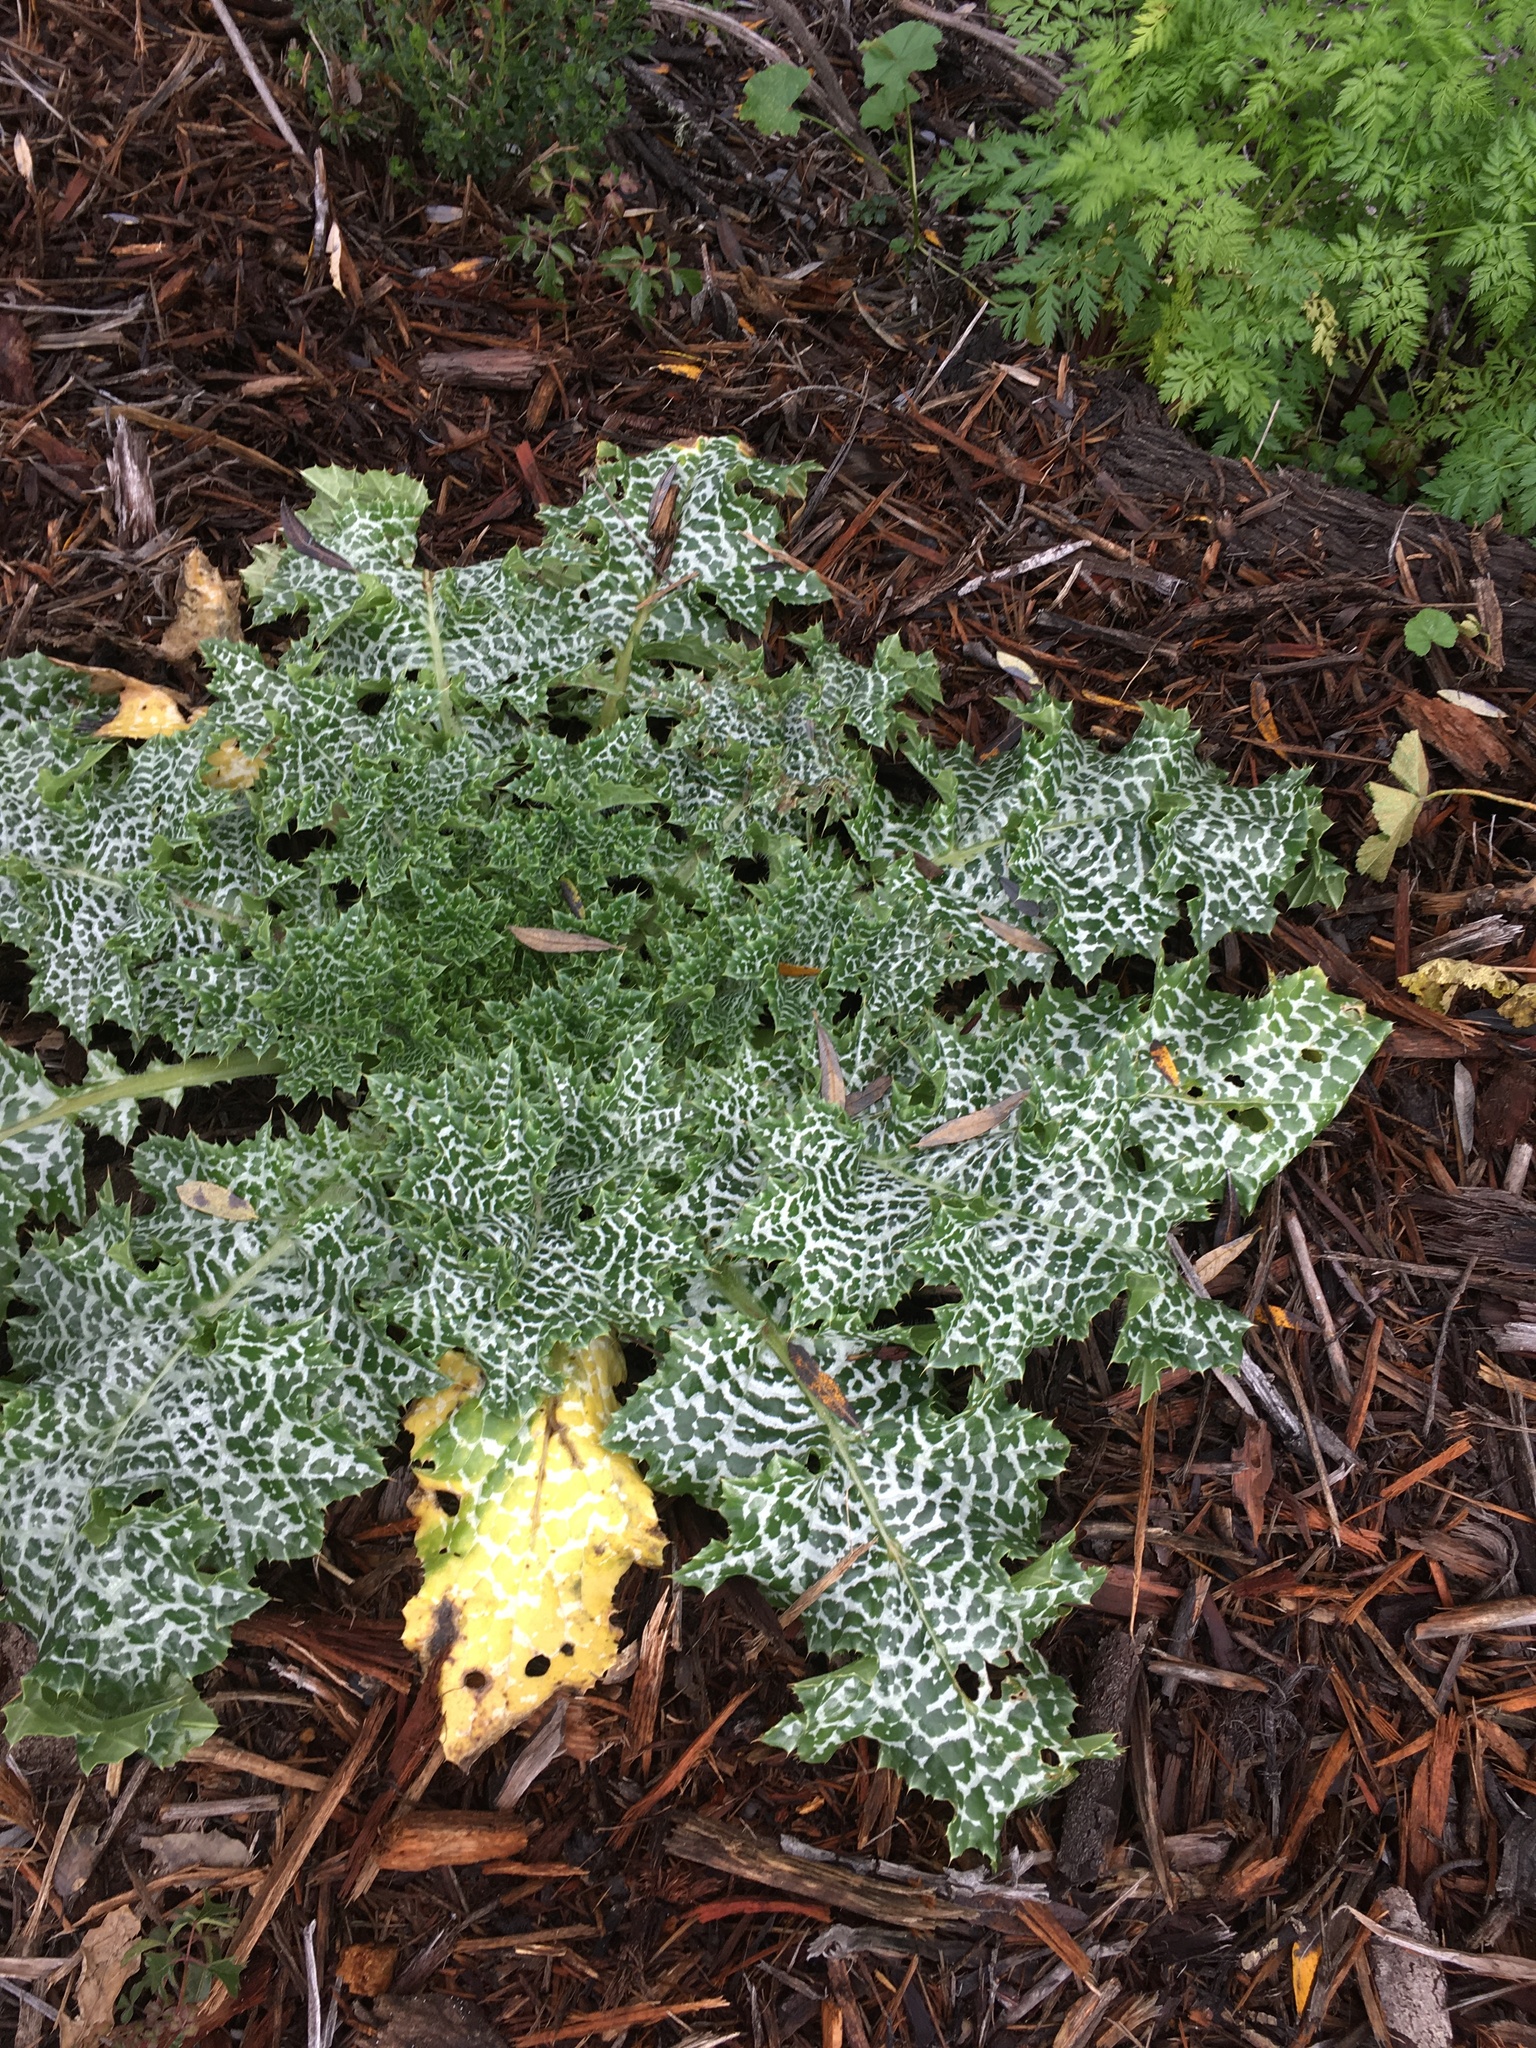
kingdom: Plantae
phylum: Tracheophyta
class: Magnoliopsida
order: Asterales
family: Asteraceae
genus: Silybum
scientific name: Silybum marianum
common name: Milk thistle
